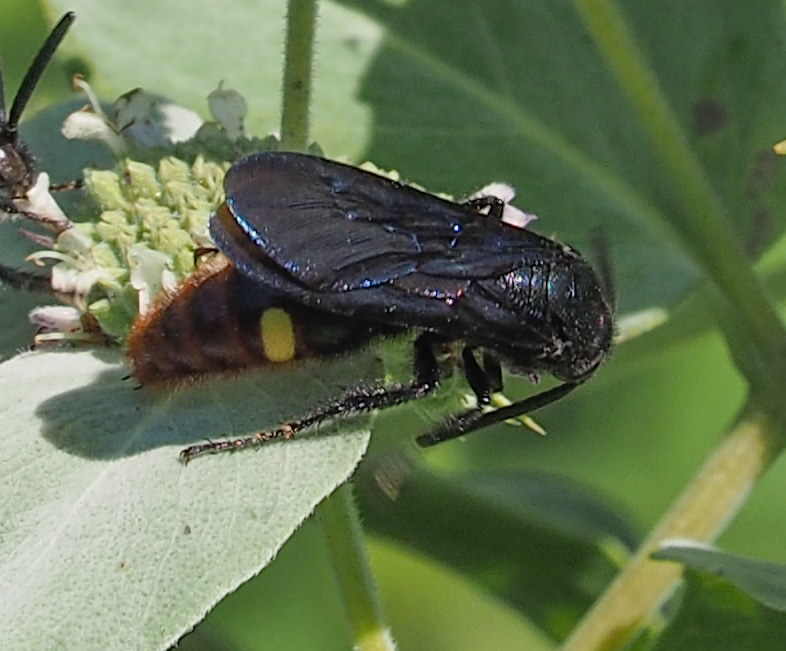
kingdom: Animalia
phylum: Arthropoda
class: Insecta
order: Hymenoptera
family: Scoliidae
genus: Scolia
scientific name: Scolia dubia
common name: Blue-winged scoliid wasp
